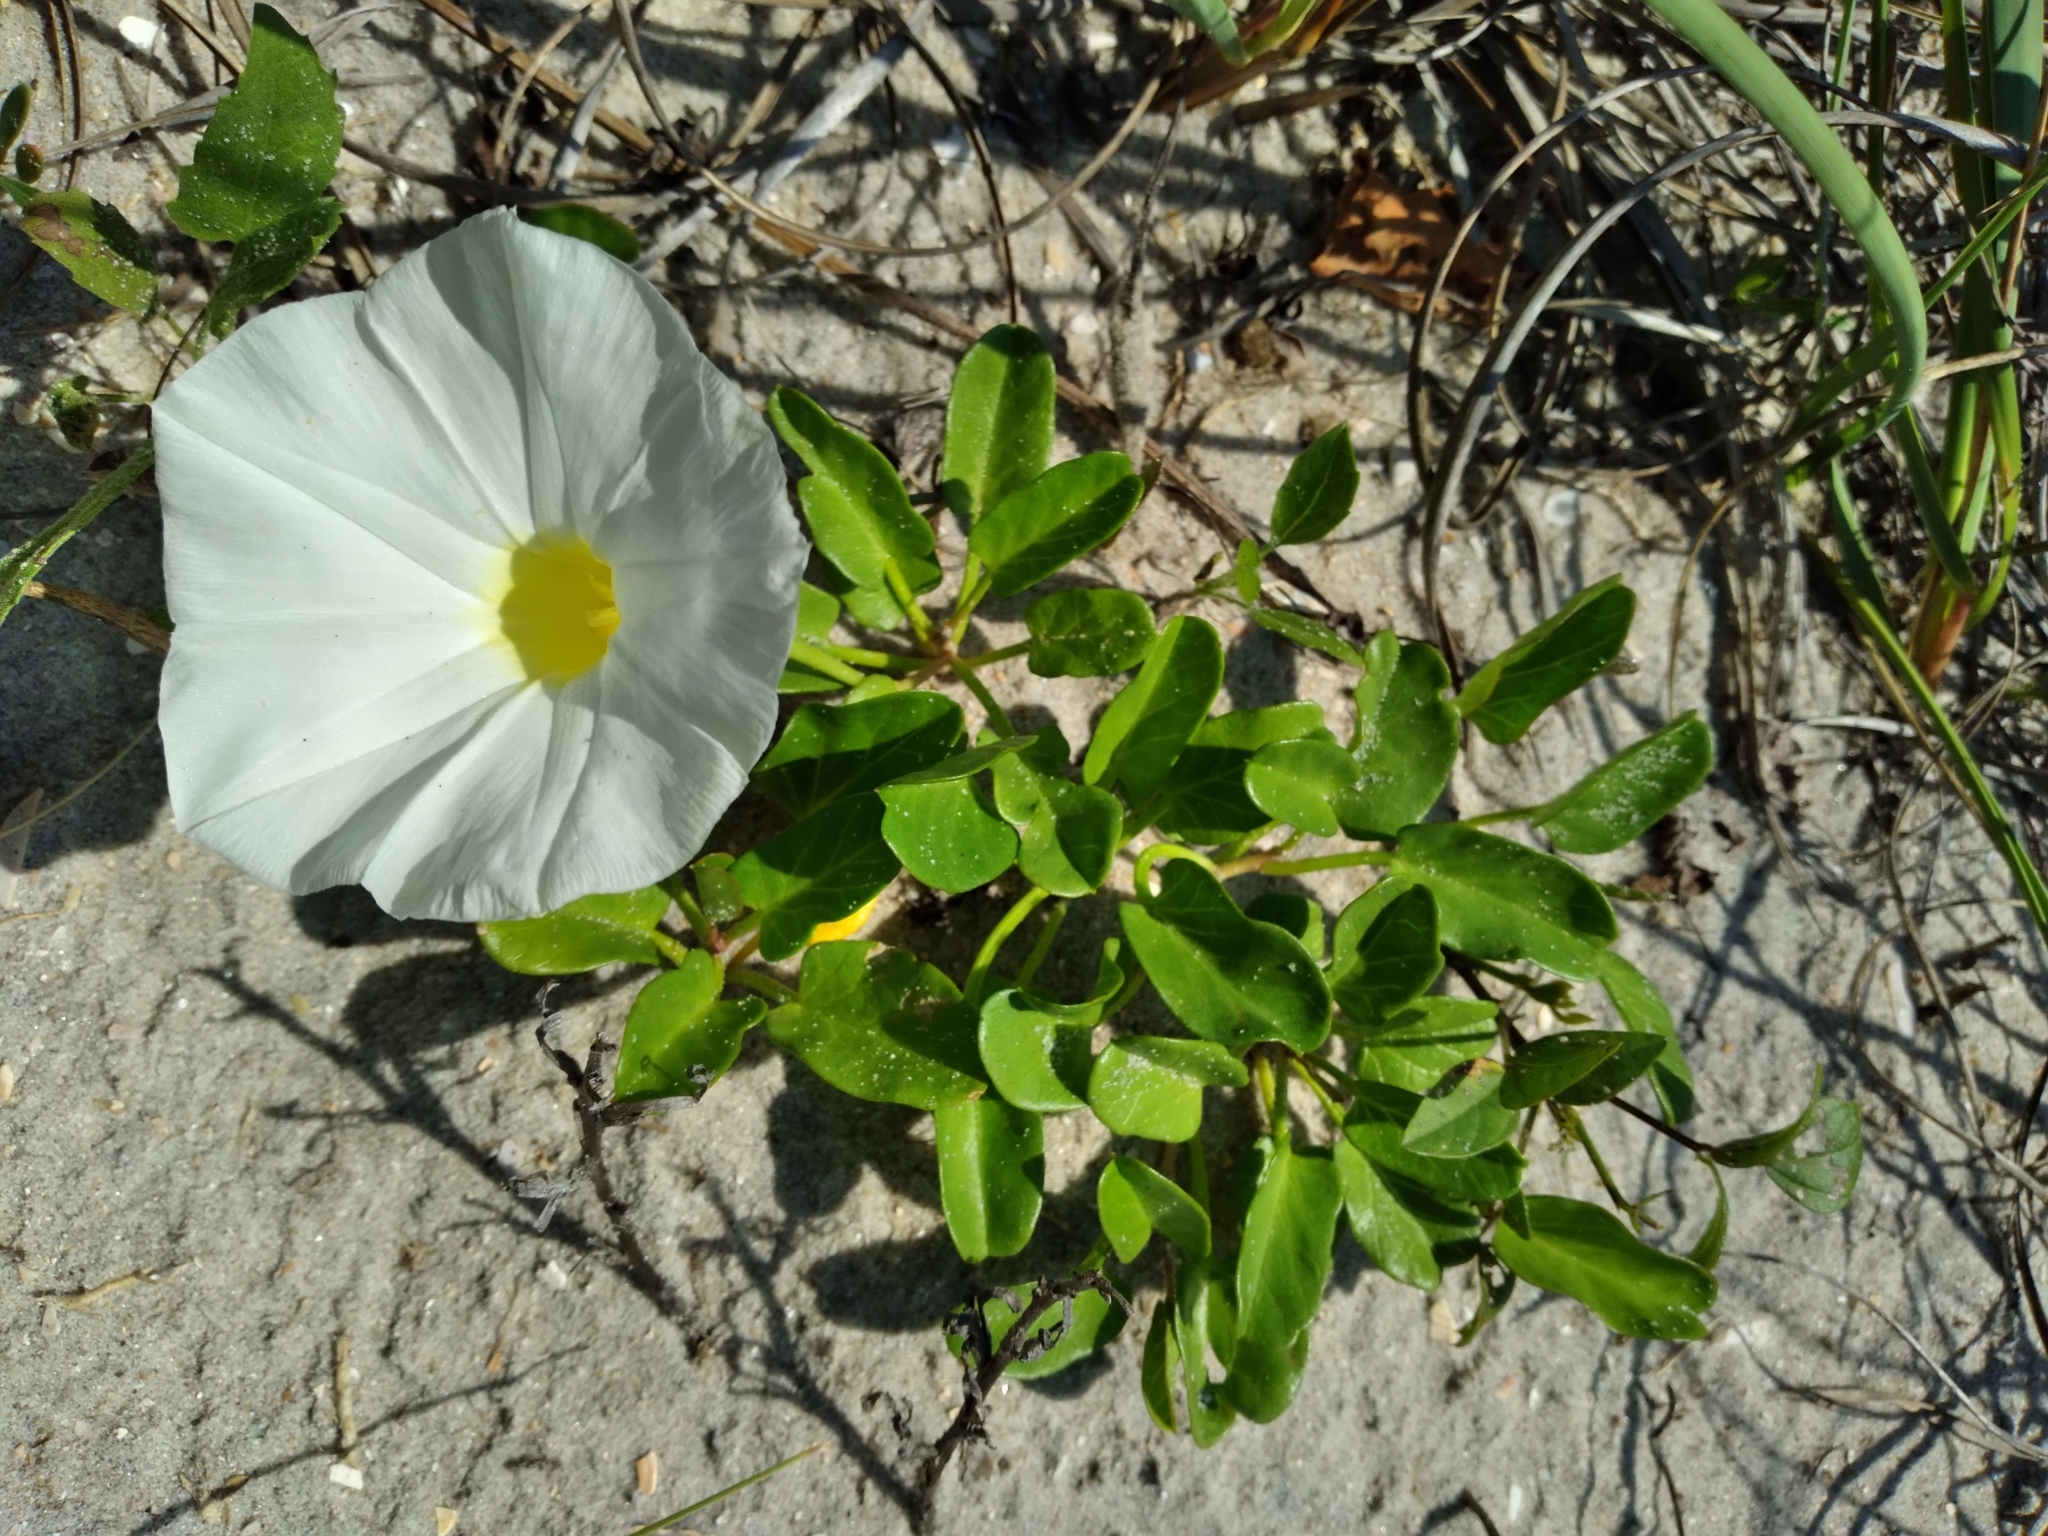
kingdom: Plantae
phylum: Tracheophyta
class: Magnoliopsida
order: Solanales
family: Convolvulaceae
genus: Ipomoea
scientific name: Ipomoea imperati
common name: Fiddle-leaf morning-glory
